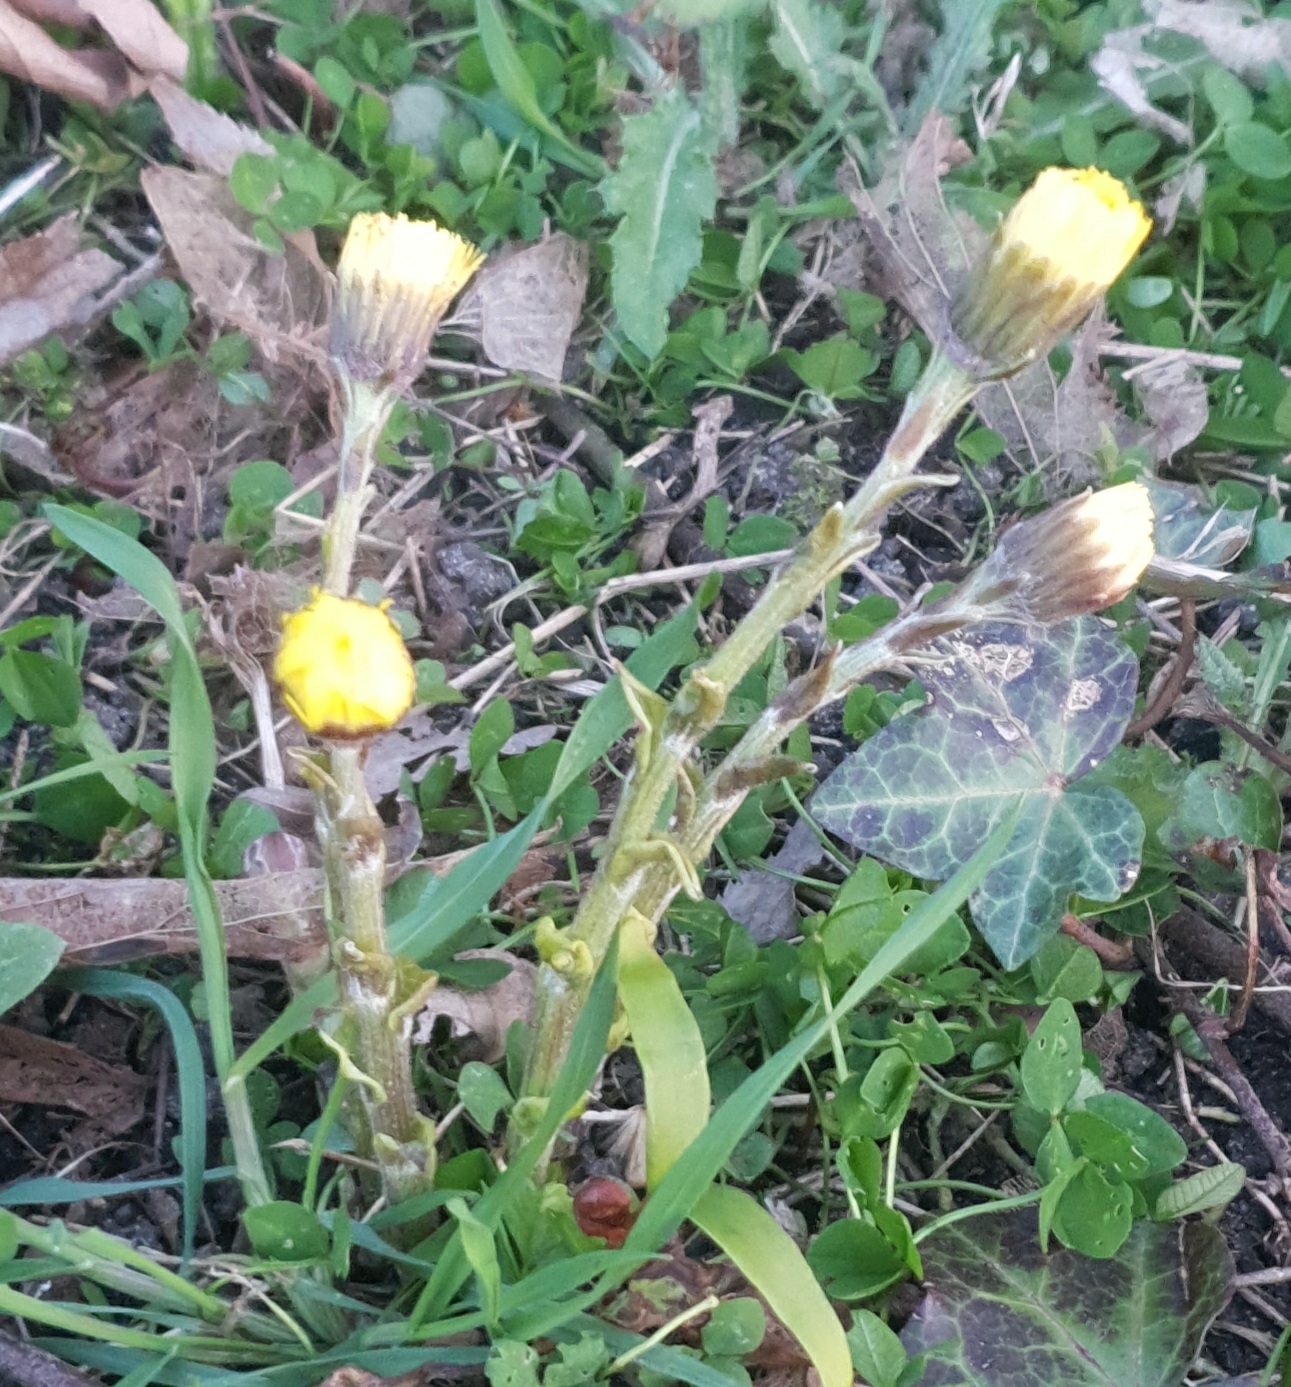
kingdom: Plantae
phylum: Tracheophyta
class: Magnoliopsida
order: Asterales
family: Asteraceae
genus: Tussilago
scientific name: Tussilago farfara
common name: Coltsfoot
